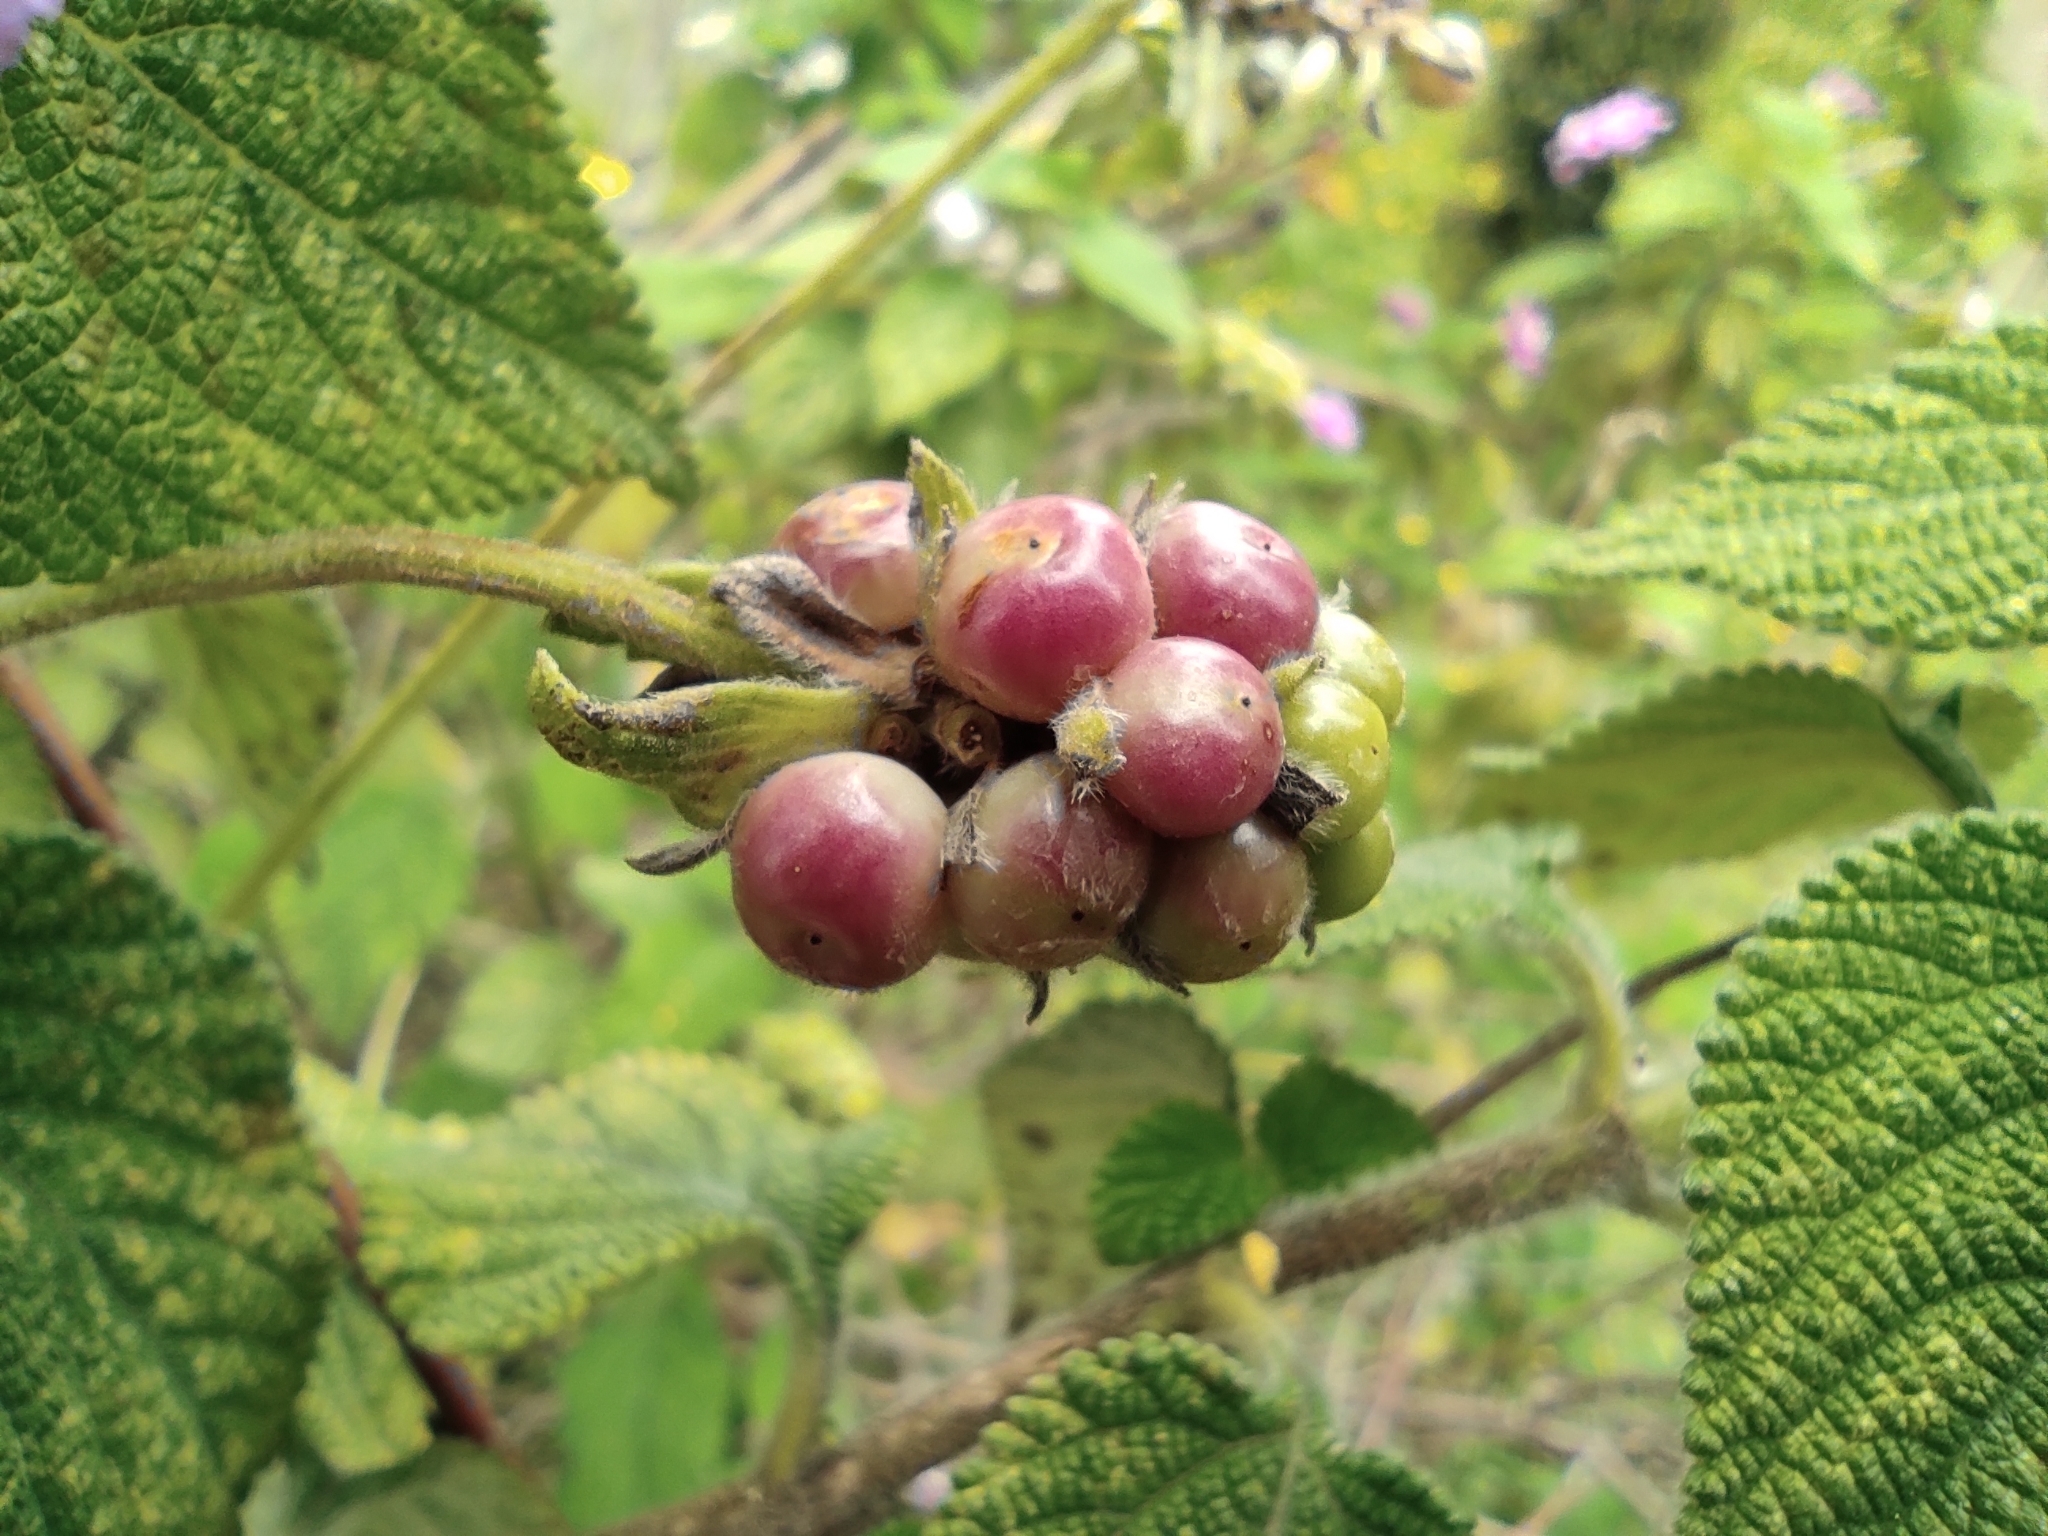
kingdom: Plantae
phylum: Tracheophyta
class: Magnoliopsida
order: Lamiales
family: Verbenaceae
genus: Lantana
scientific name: Lantana rugulosa
